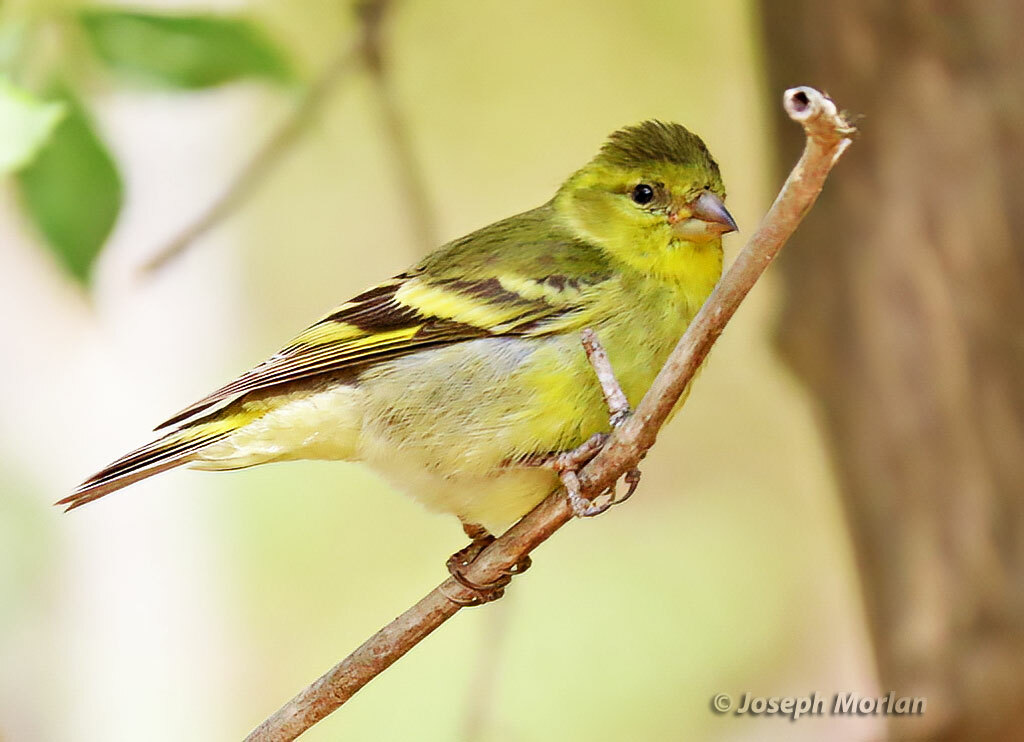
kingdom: Animalia
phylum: Chordata
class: Aves
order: Passeriformes
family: Fringillidae
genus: Spinus
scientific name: Spinus barbatus
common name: Black-chinned siskin
